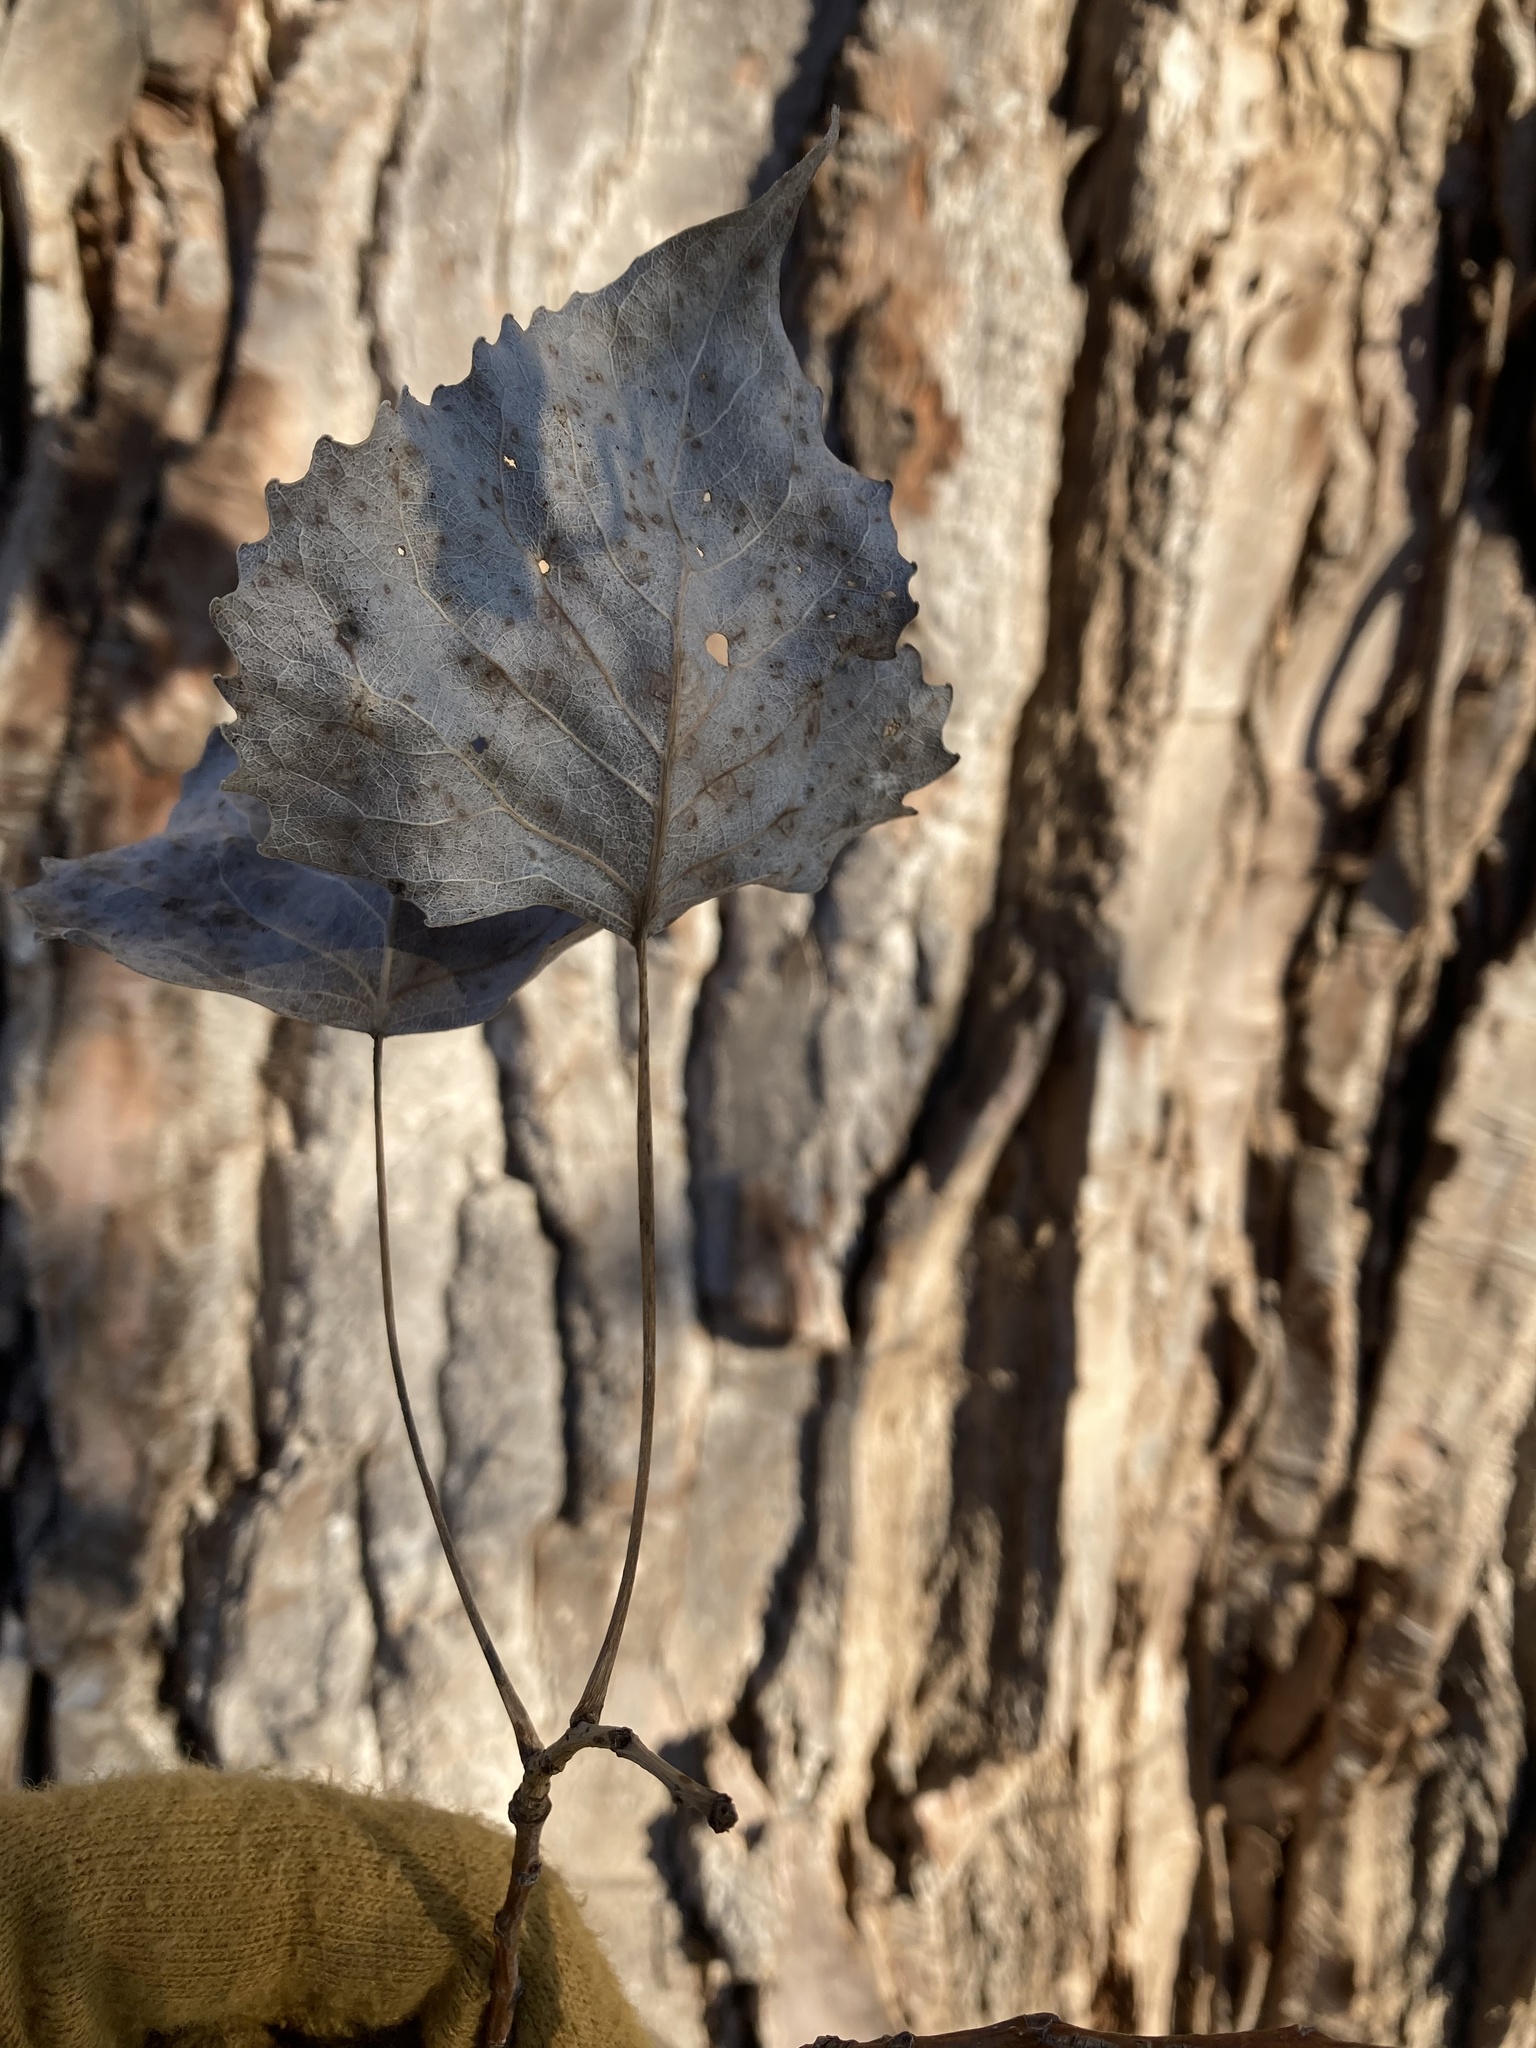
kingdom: Plantae
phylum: Tracheophyta
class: Magnoliopsida
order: Malpighiales
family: Salicaceae
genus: Populus
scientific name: Populus deltoides
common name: Eastern cottonwood
